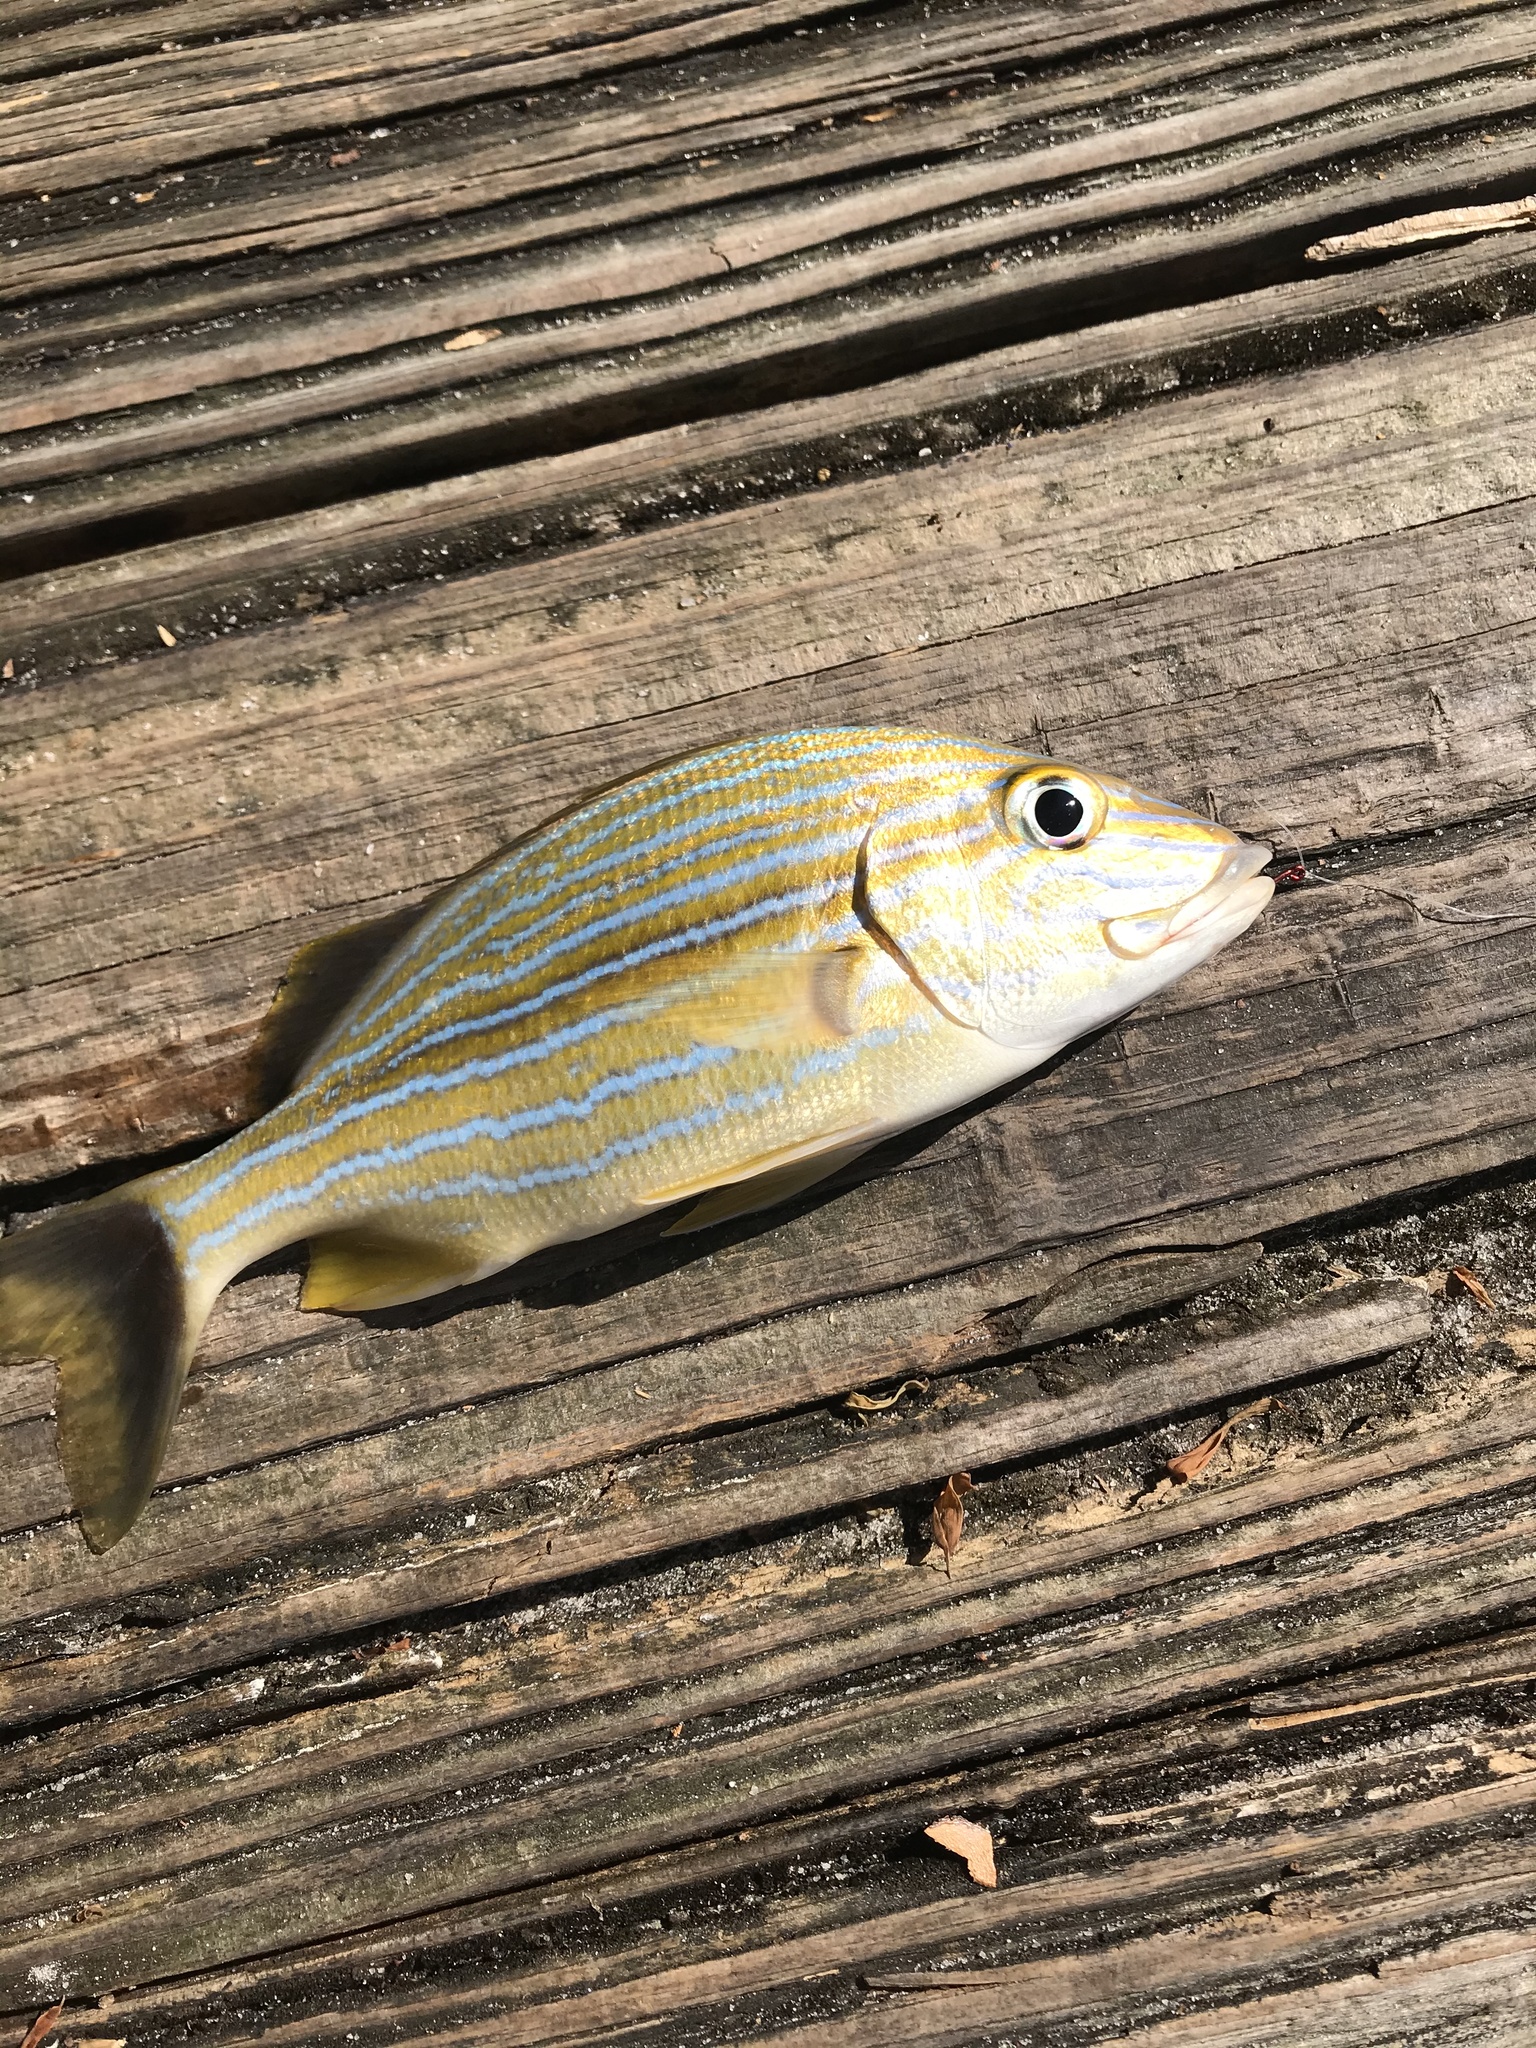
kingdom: Animalia
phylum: Chordata
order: Perciformes
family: Haemulidae
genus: Haemulon
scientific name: Haemulon sciurus
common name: Bluestriped grunt
